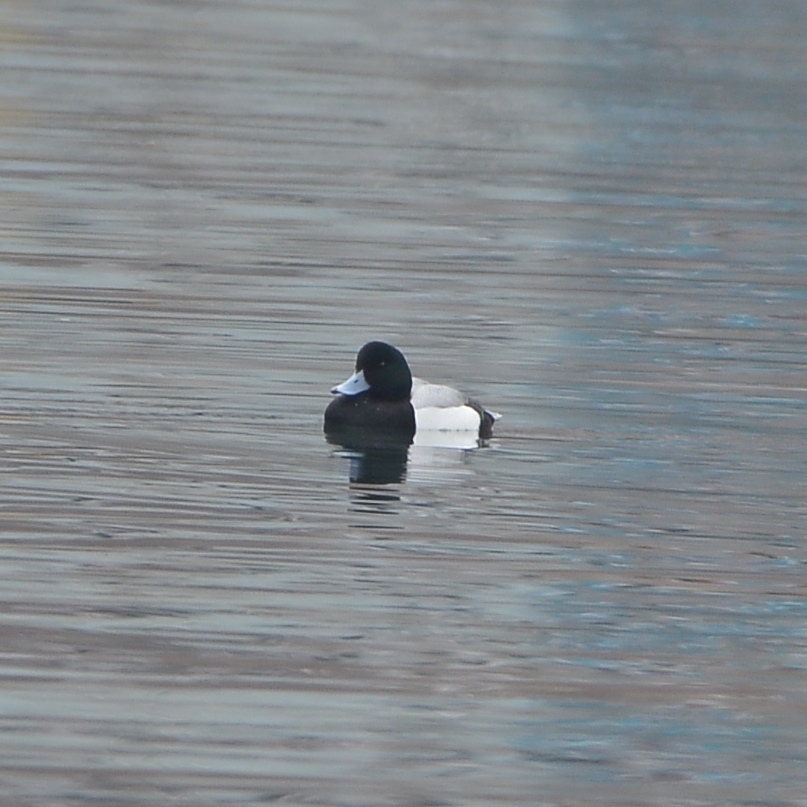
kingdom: Animalia
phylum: Chordata
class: Aves
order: Anseriformes
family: Anatidae
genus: Aythya
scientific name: Aythya marila
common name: Greater scaup
